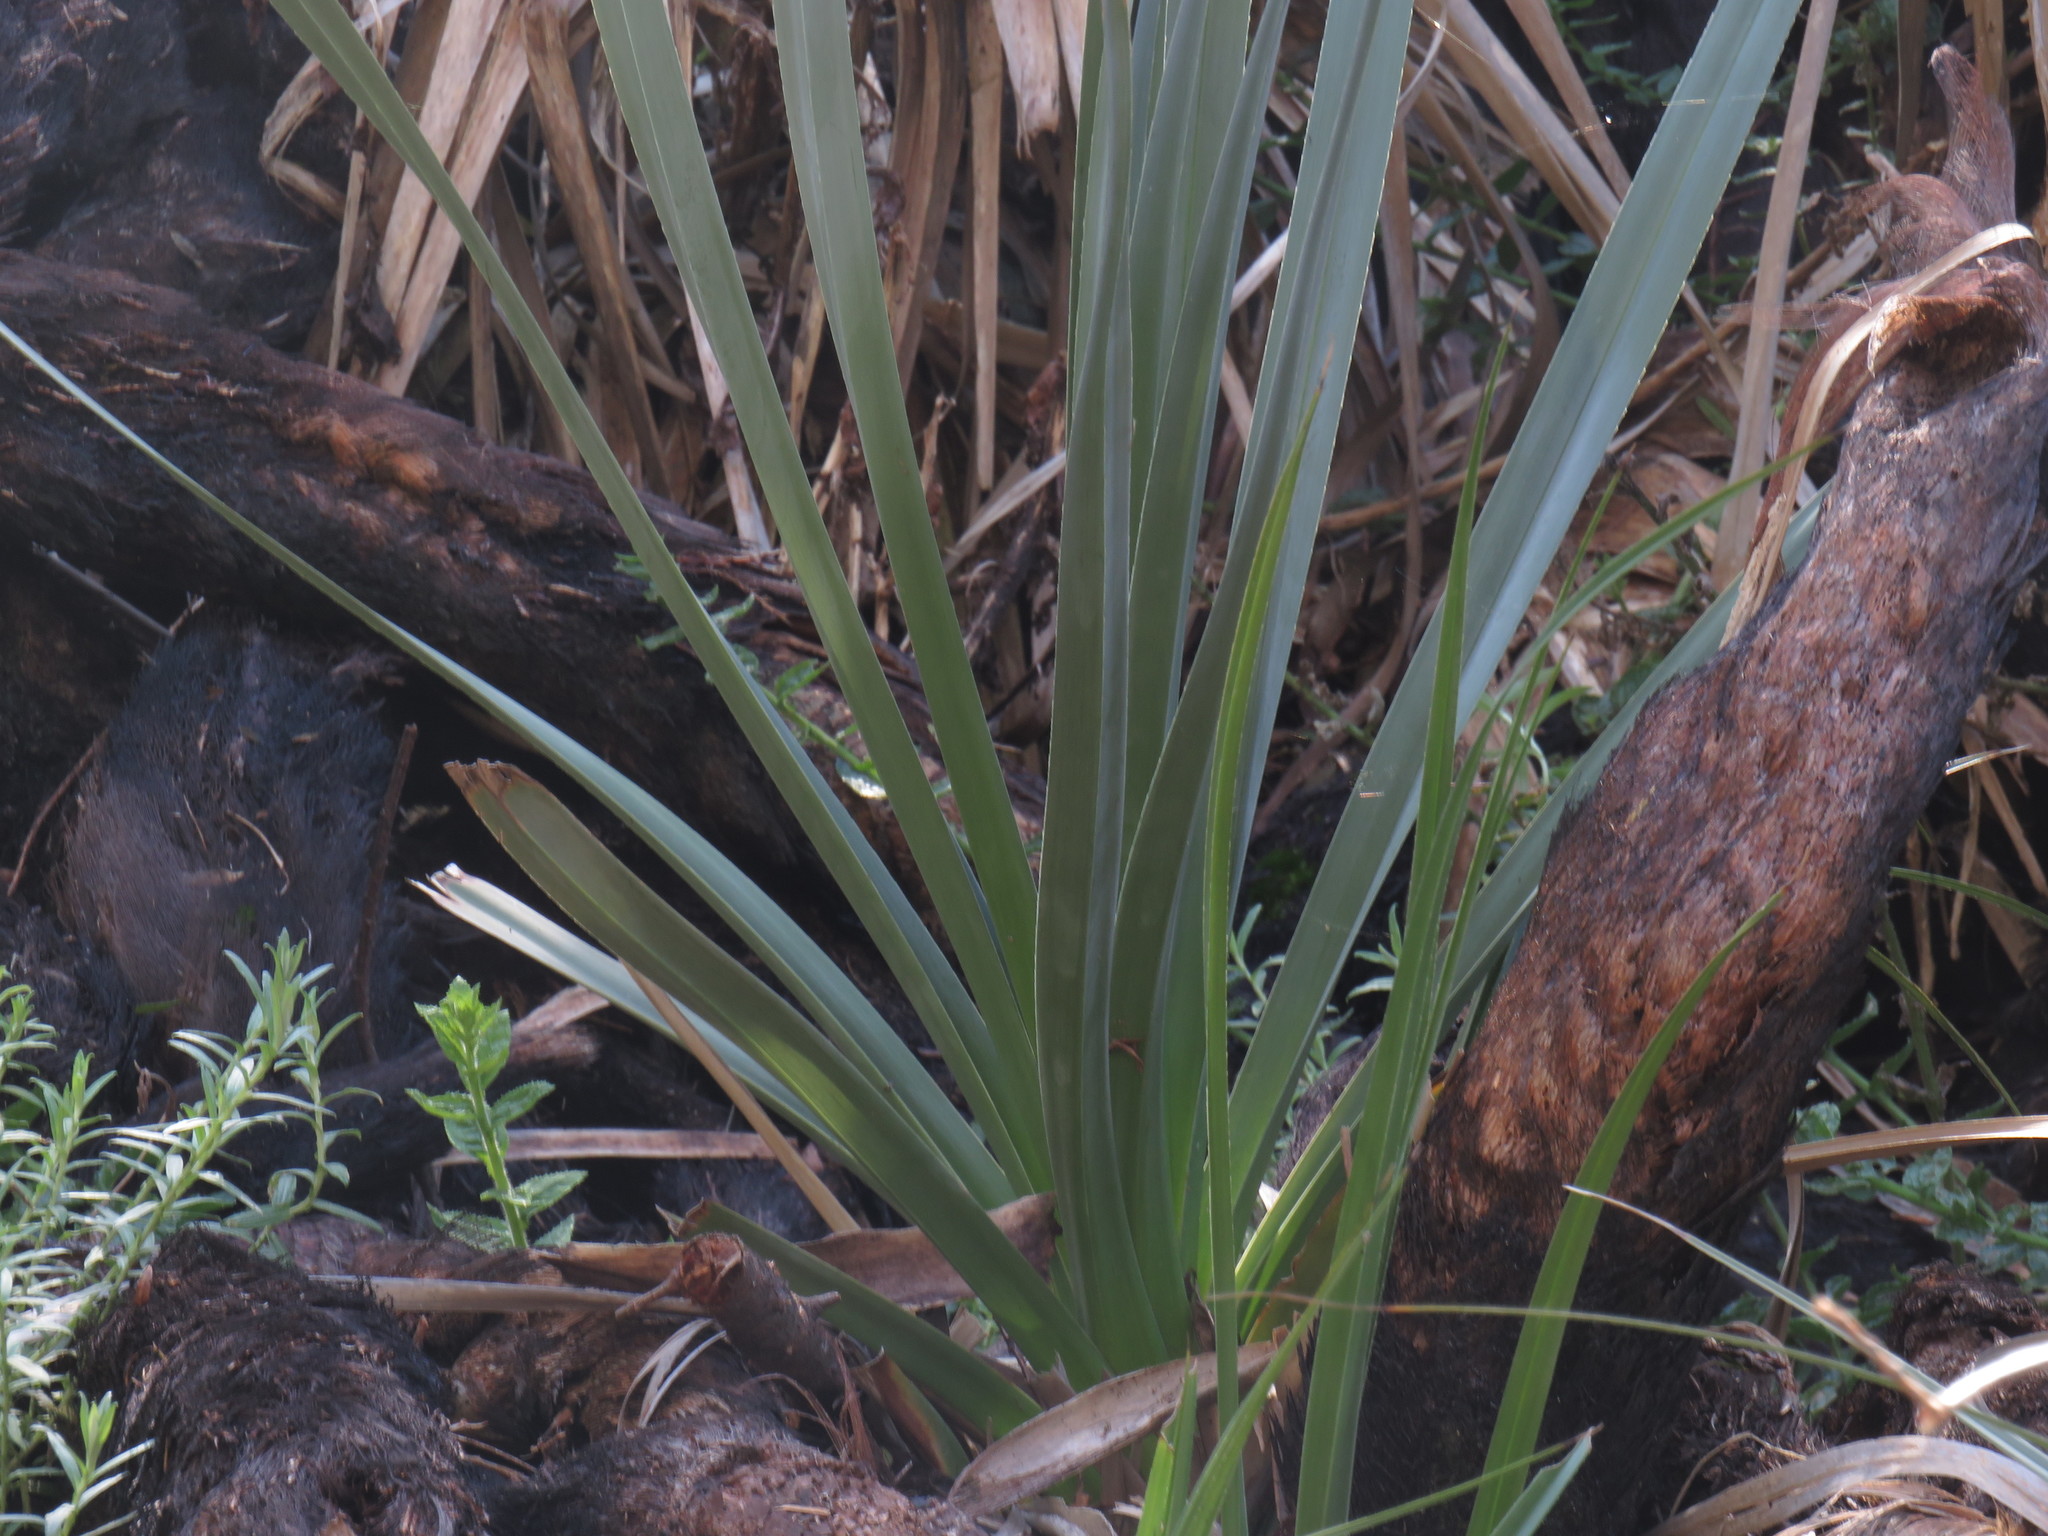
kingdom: Plantae
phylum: Tracheophyta
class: Liliopsida
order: Poales
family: Thurniaceae
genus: Prionium
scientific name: Prionium serratum
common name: Palmiet
